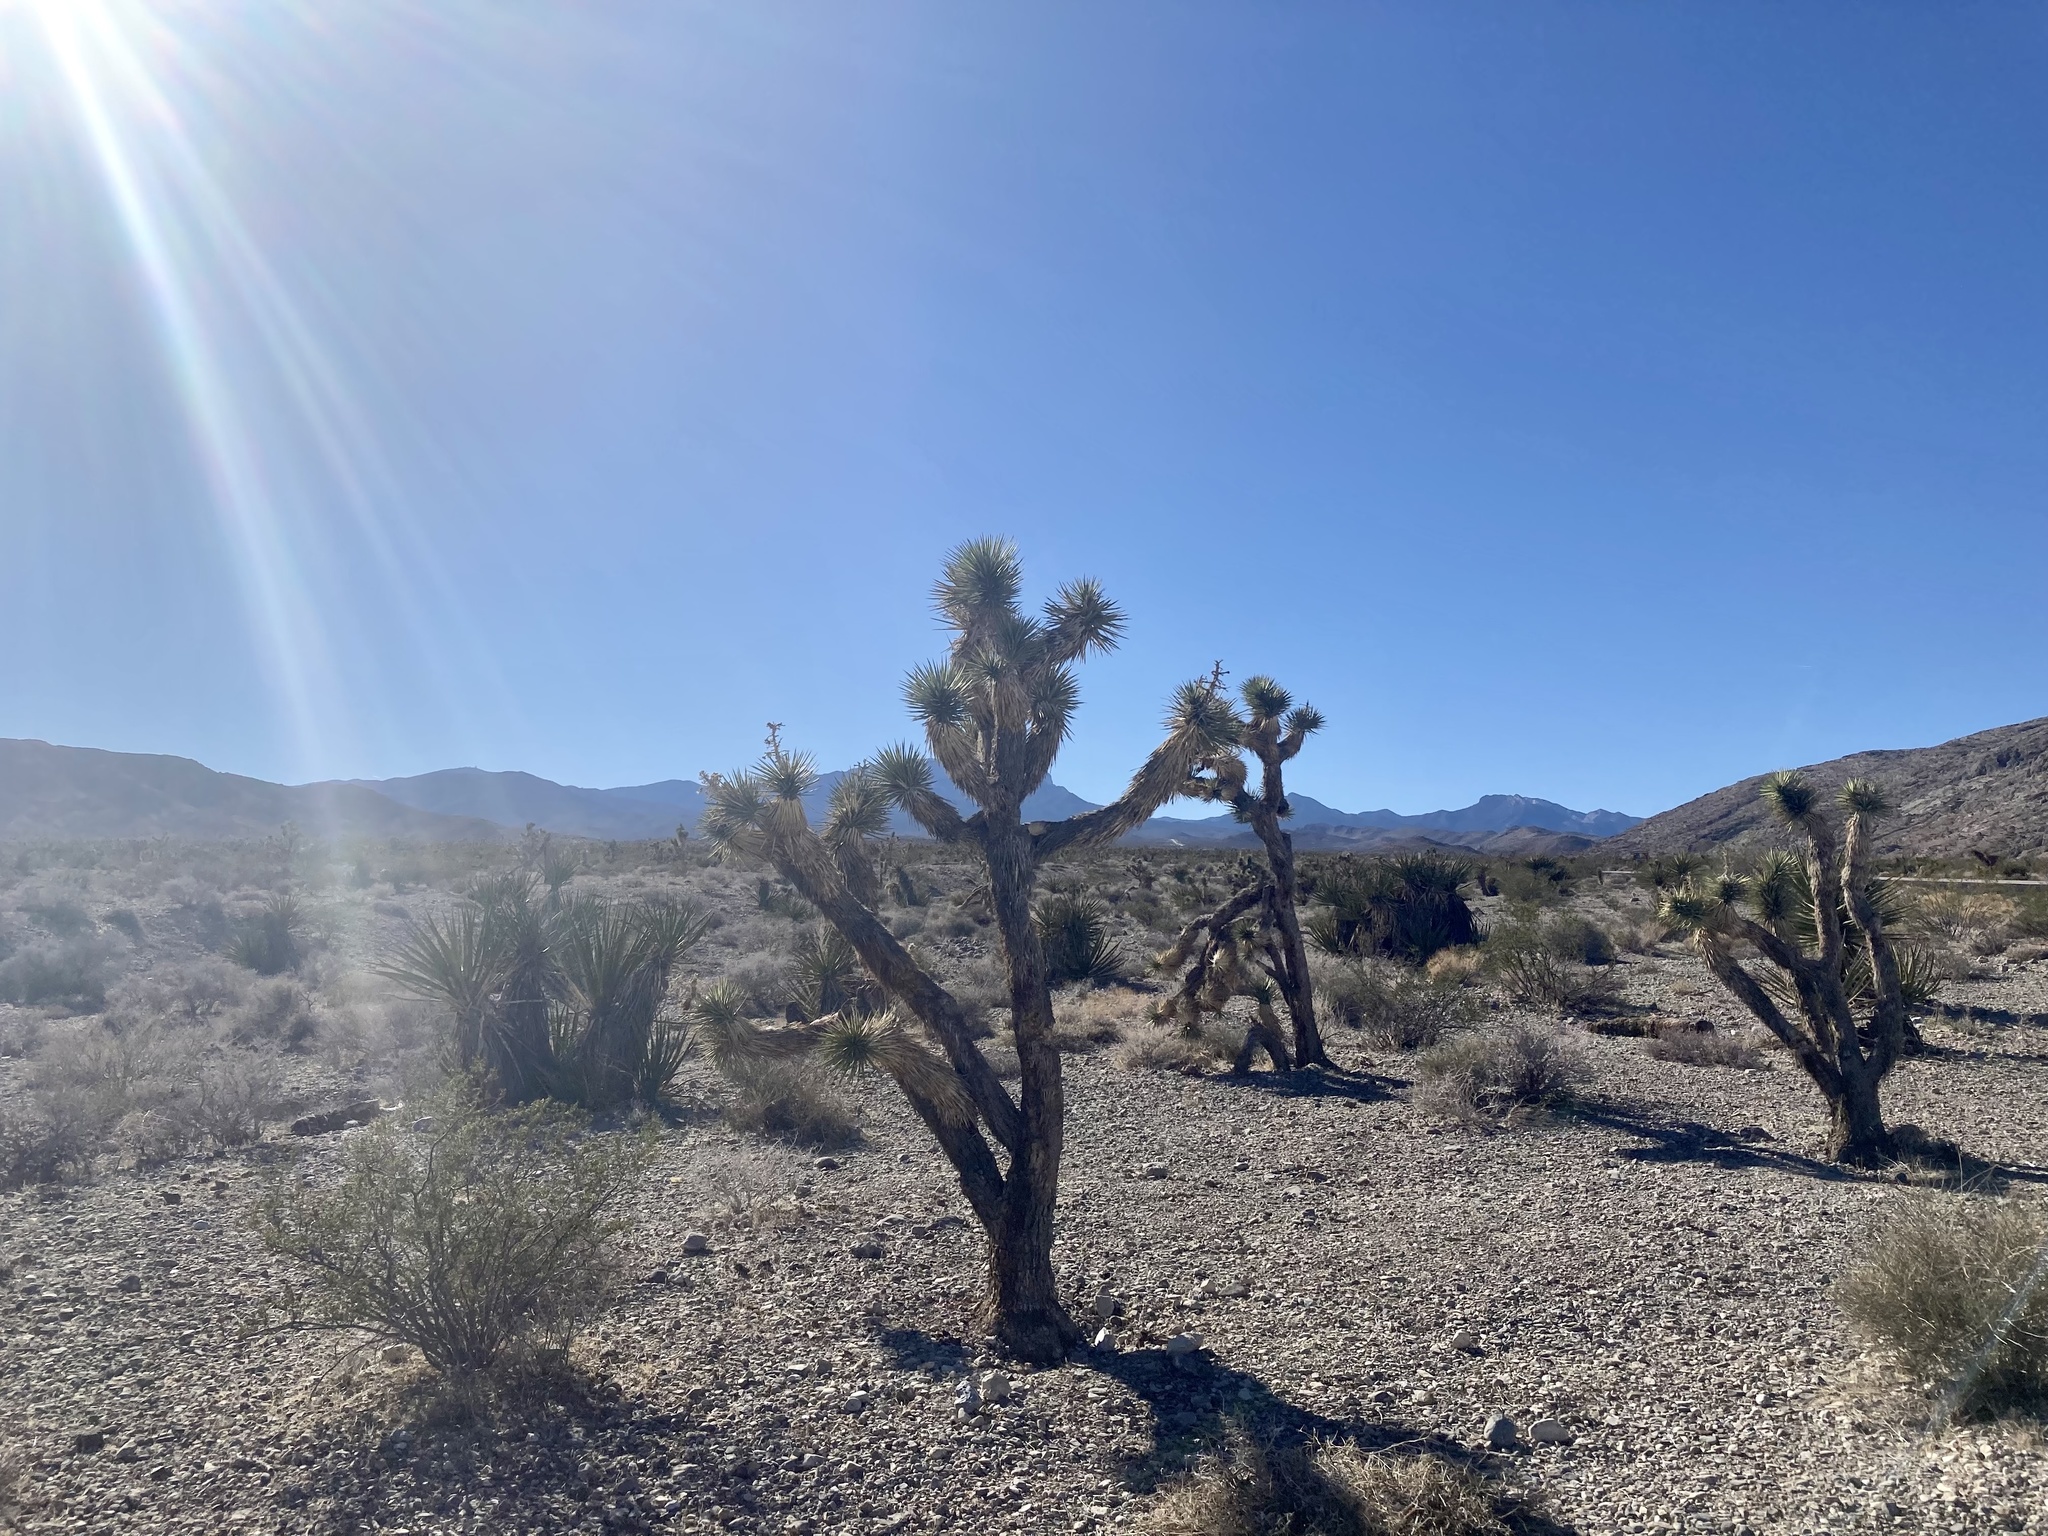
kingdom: Plantae
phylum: Tracheophyta
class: Liliopsida
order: Asparagales
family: Asparagaceae
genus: Yucca
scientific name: Yucca brevifolia
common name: Joshua tree
